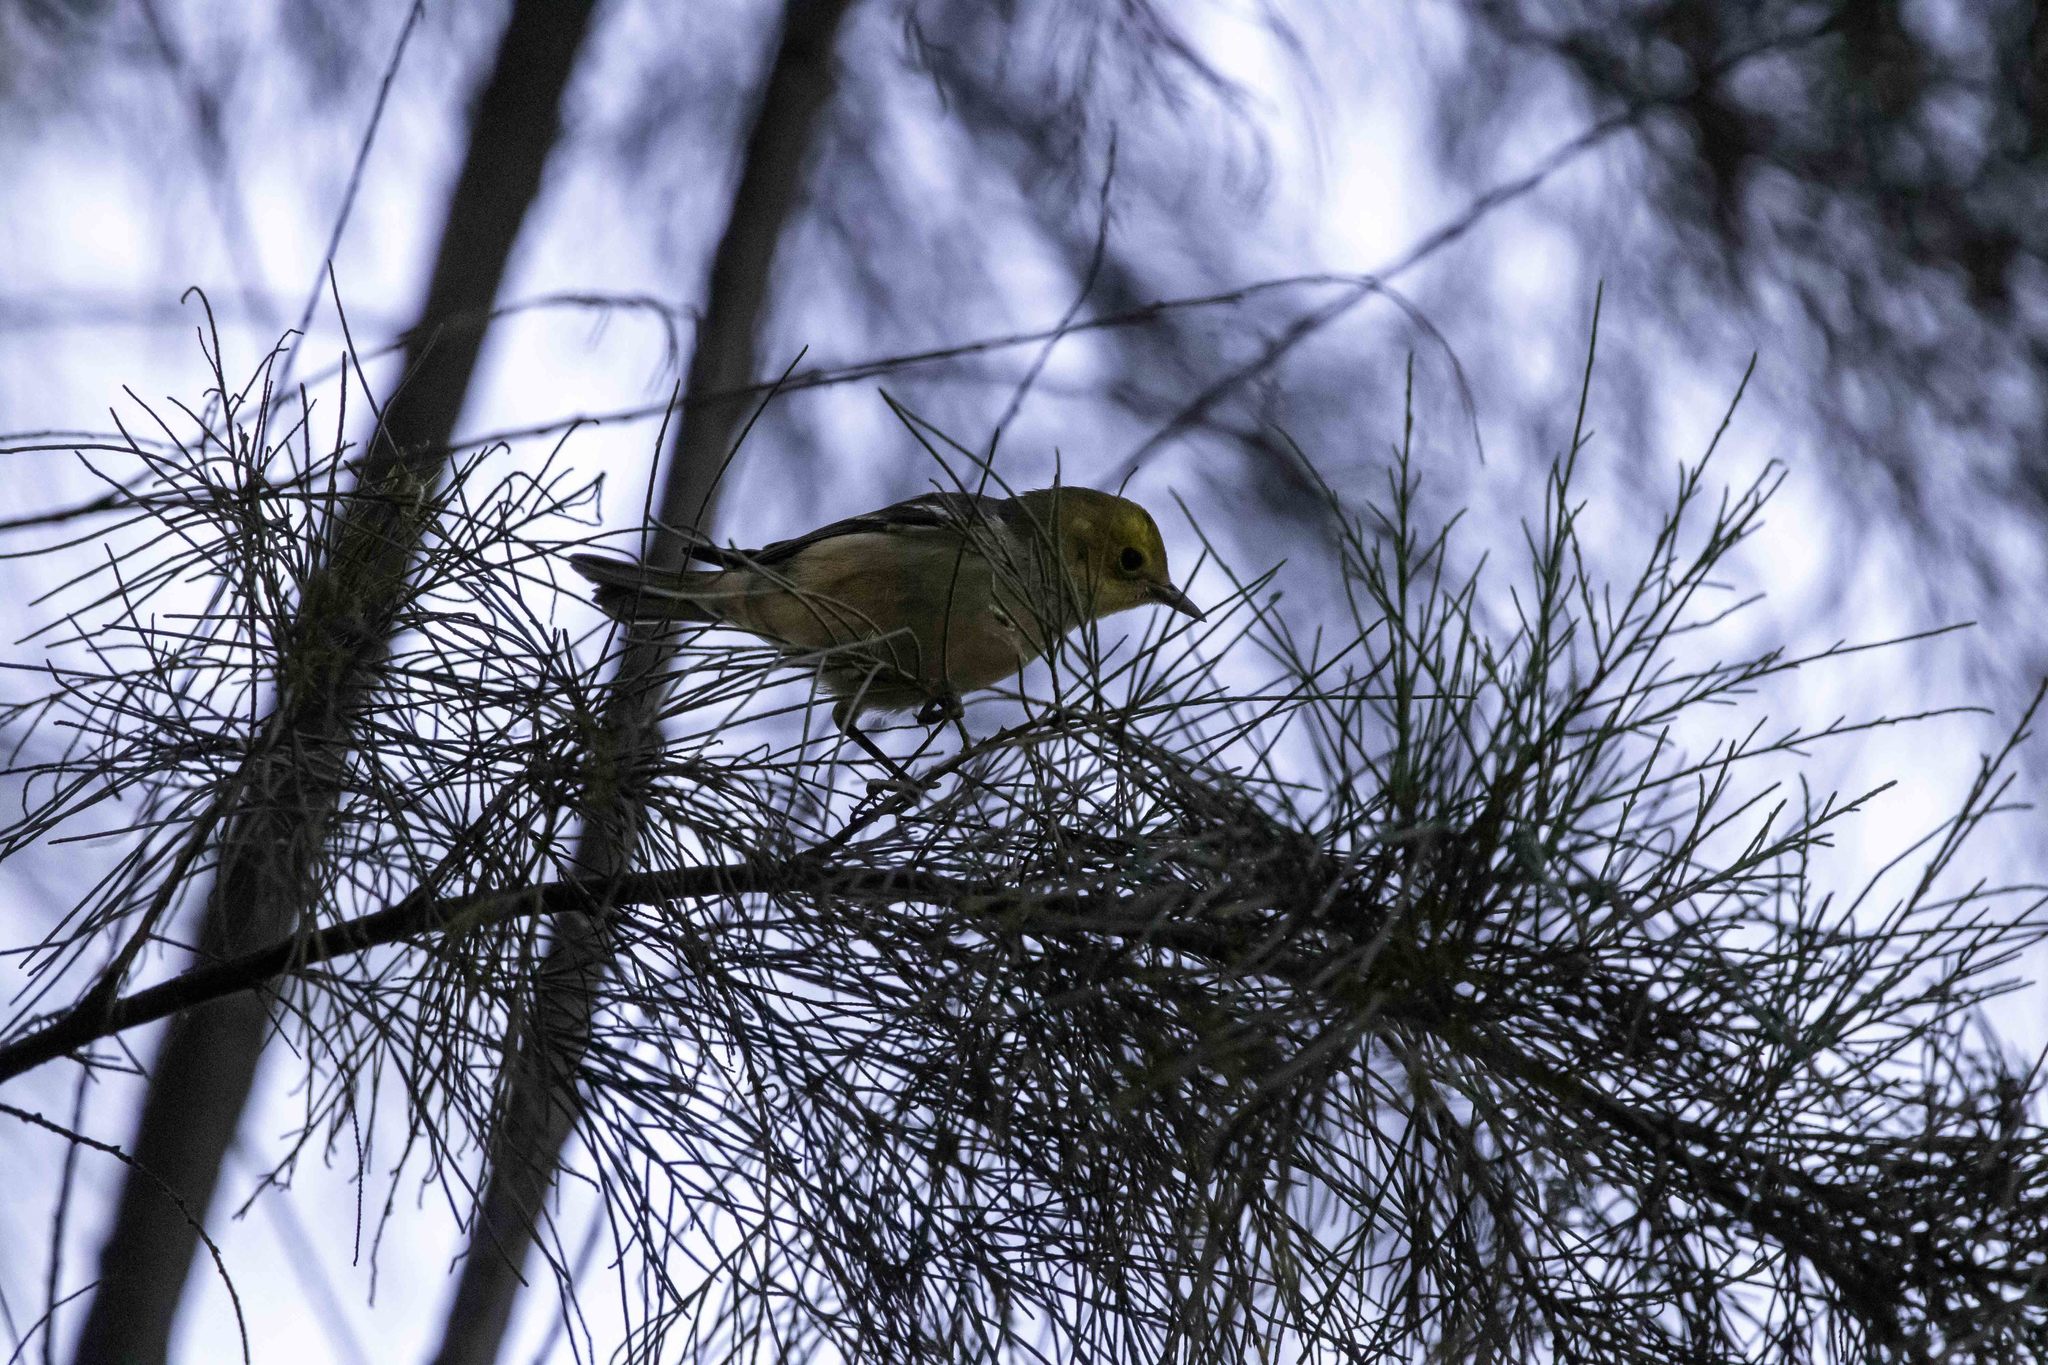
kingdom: Animalia
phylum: Chordata
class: Aves
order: Passeriformes
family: Parulidae
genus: Setophaga
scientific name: Setophaga occidentalis
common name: Hermit warbler
